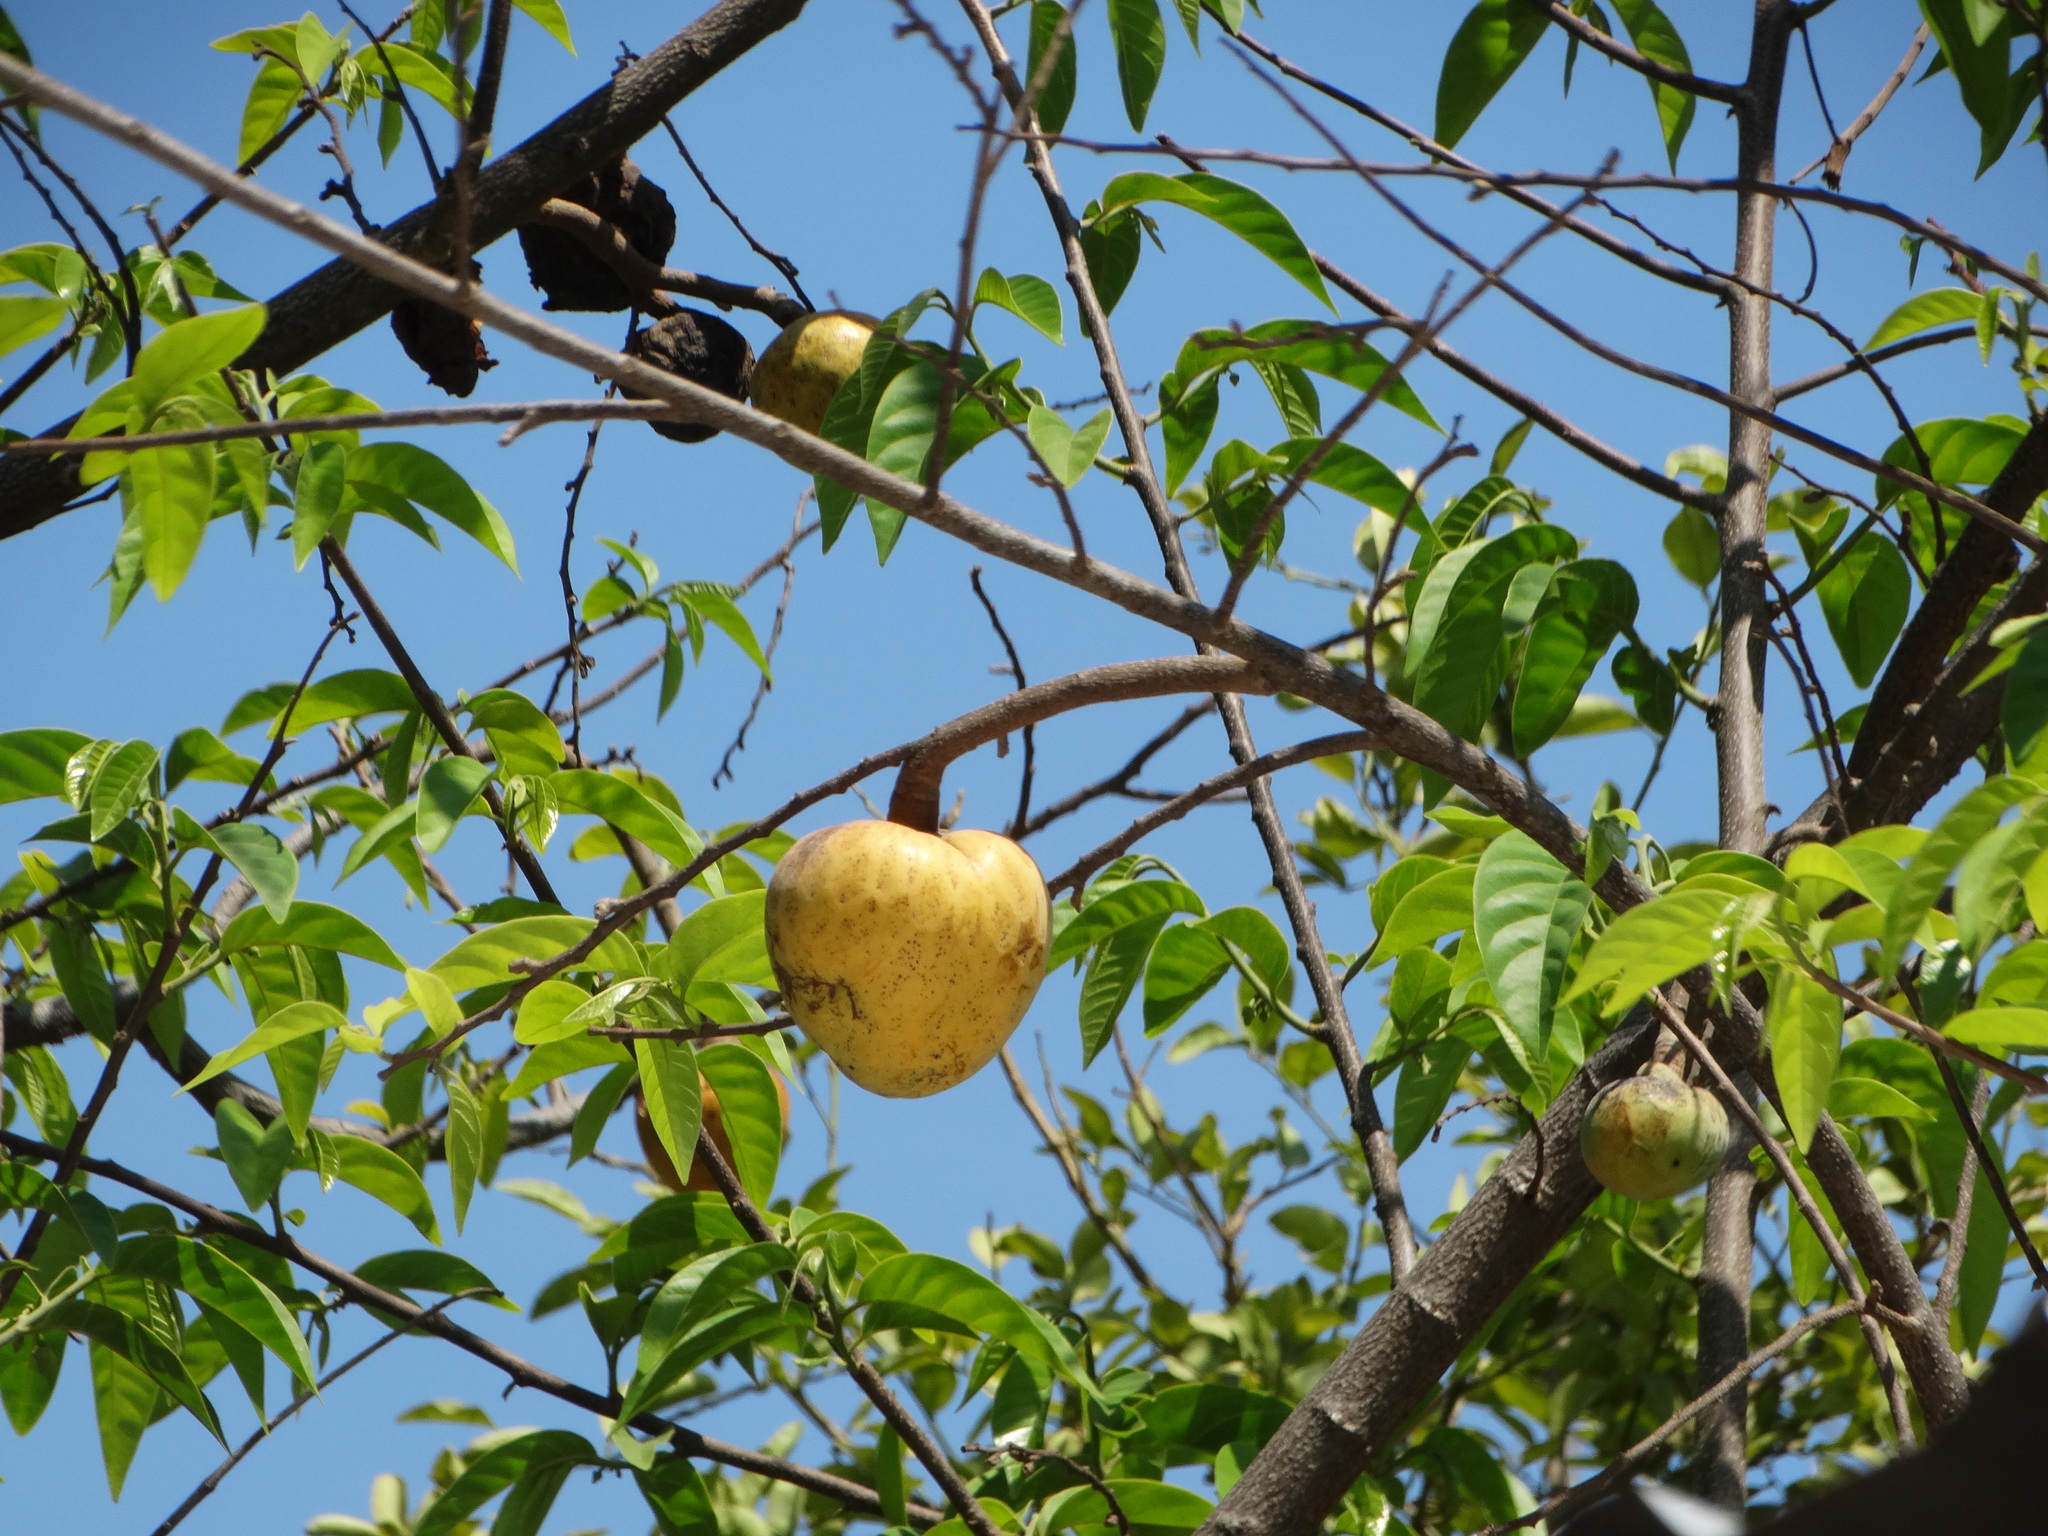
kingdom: Plantae
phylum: Tracheophyta
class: Magnoliopsida
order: Magnoliales
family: Annonaceae
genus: Annona
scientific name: Annona reticulata
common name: Custard apple
